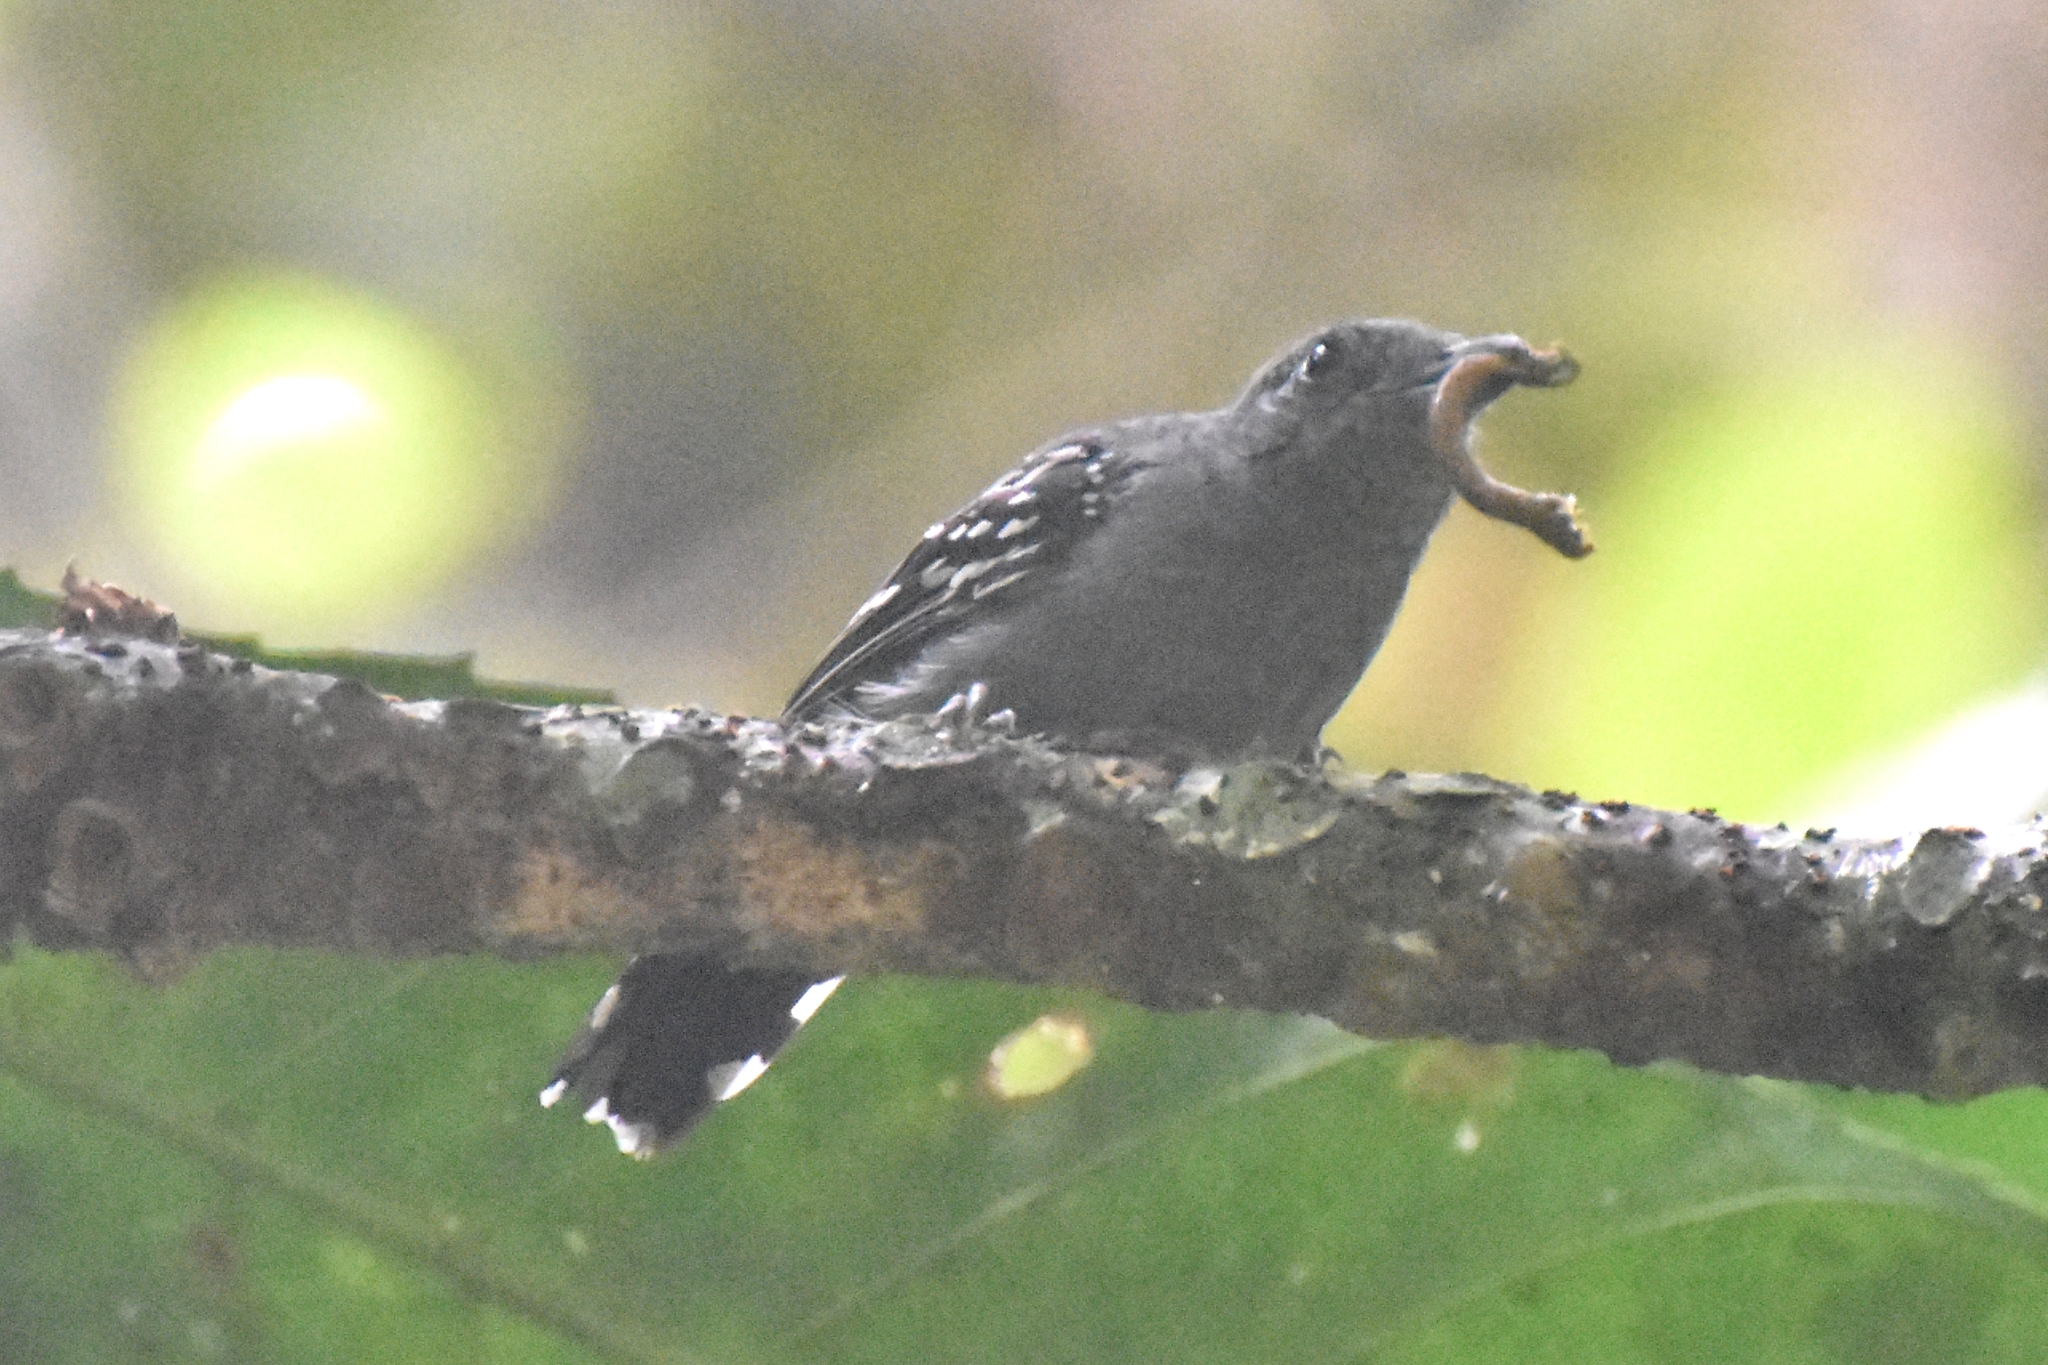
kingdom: Animalia
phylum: Chordata
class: Aves
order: Passeriformes
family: Thamnophilidae
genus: Thamnophilus
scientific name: Thamnophilus atrinucha
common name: Black-crowned antshrike
